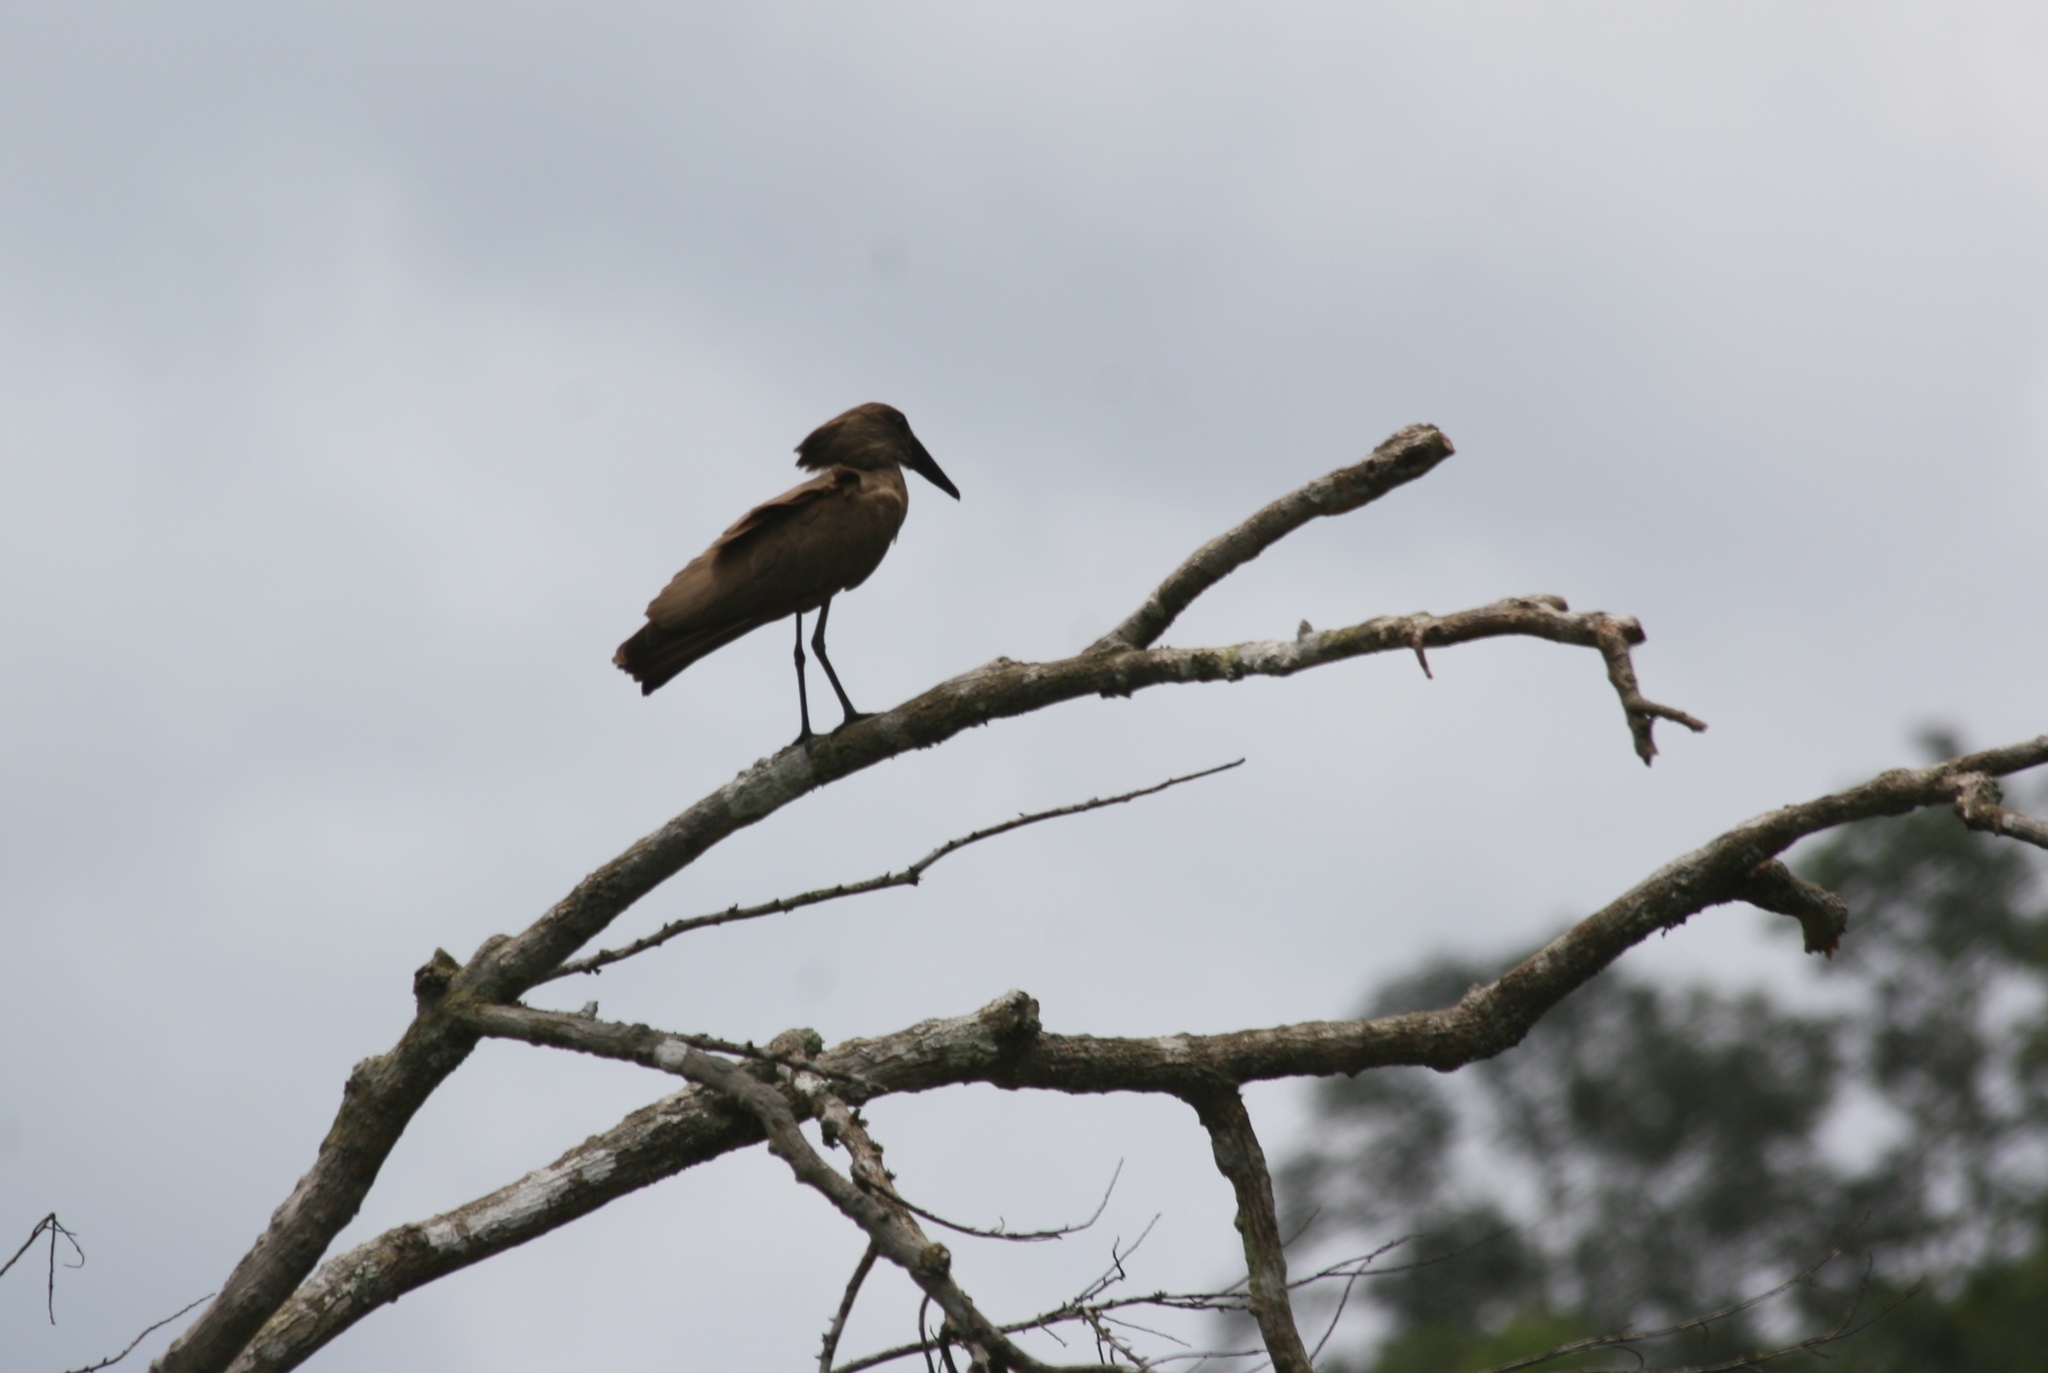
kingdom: Animalia
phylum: Chordata
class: Aves
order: Pelecaniformes
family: Scopidae
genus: Scopus
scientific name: Scopus umbretta
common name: Hamerkop
